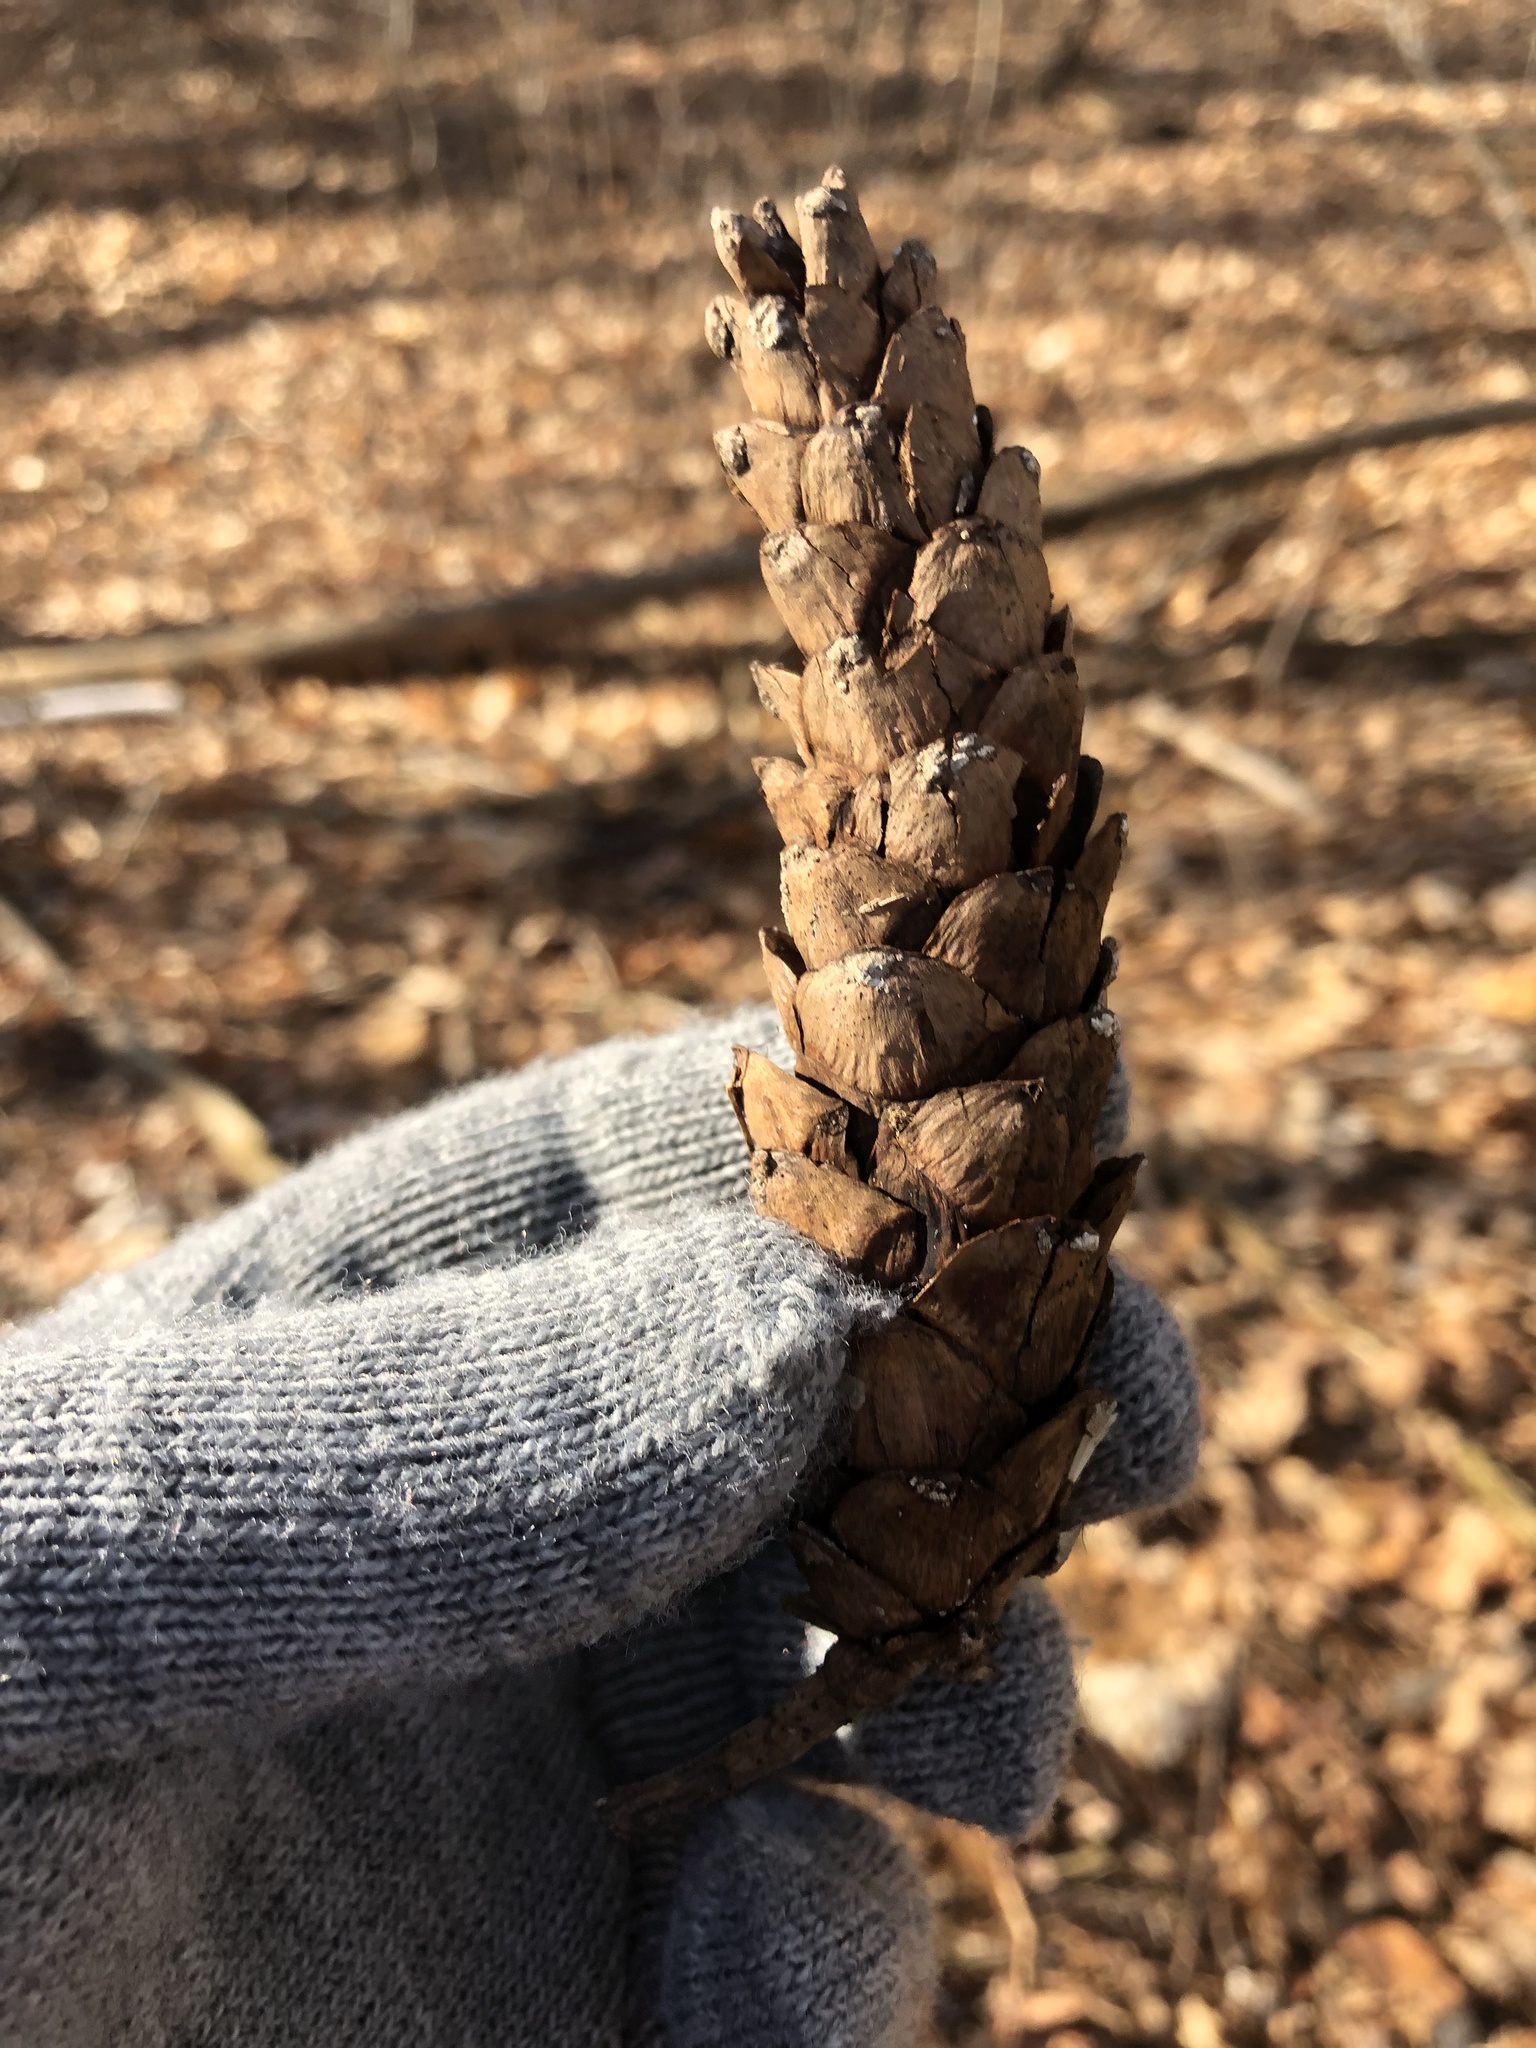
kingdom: Plantae
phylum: Tracheophyta
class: Pinopsida
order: Pinales
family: Pinaceae
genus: Pinus
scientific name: Pinus strobus
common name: Weymouth pine
